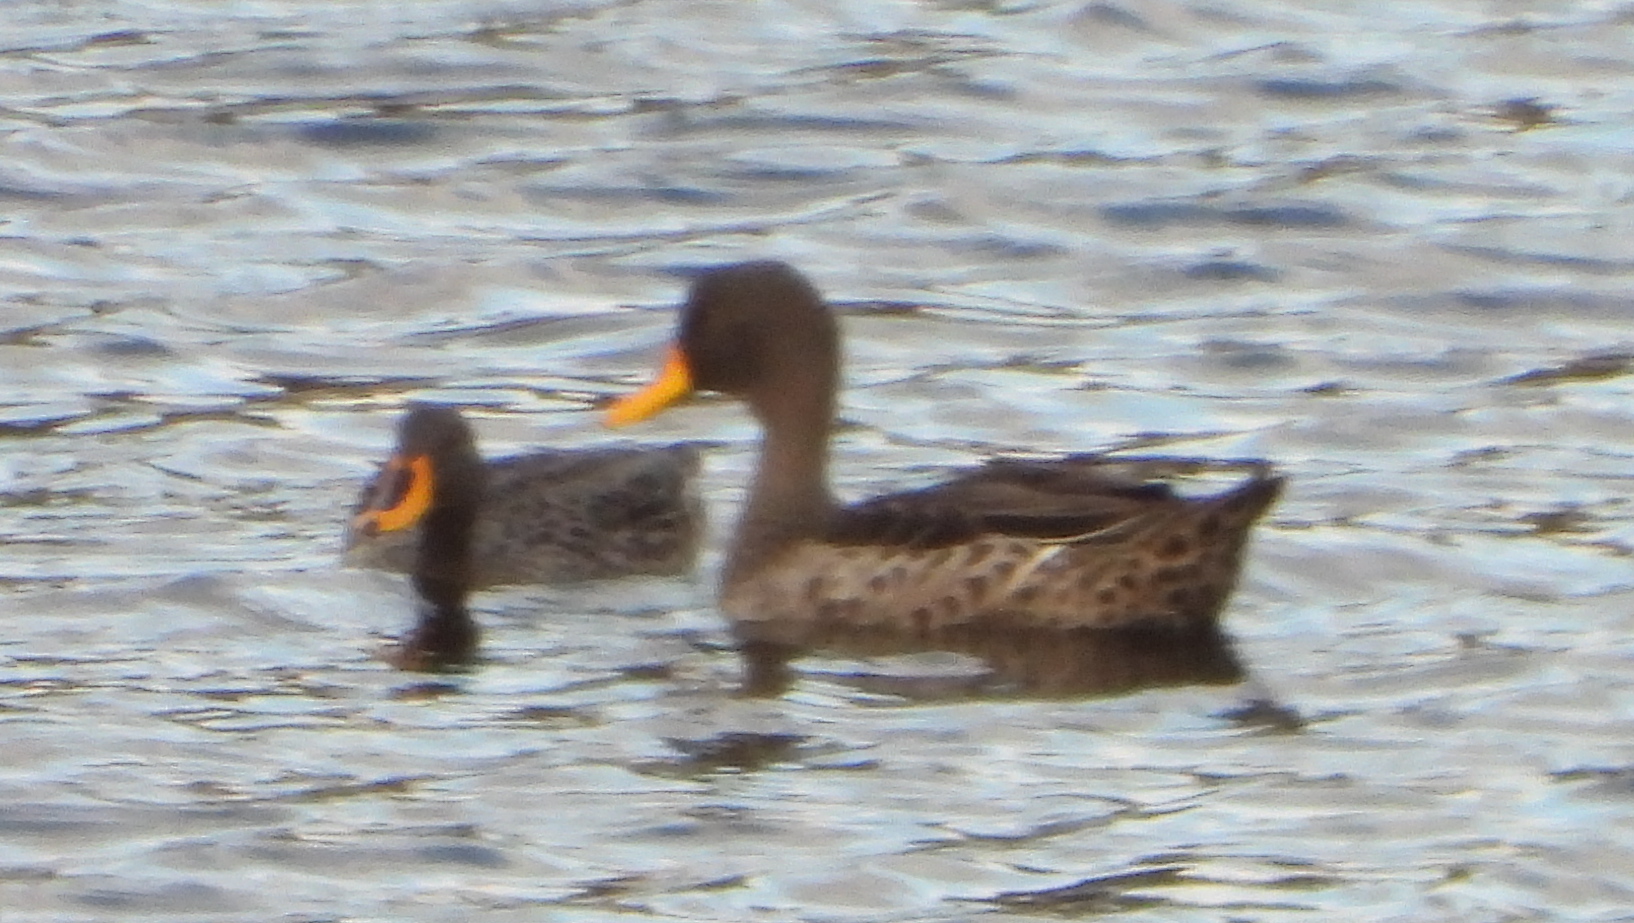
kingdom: Animalia
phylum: Chordata
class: Aves
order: Anseriformes
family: Anatidae
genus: Anas
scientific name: Anas undulata
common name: Yellow-billed duck
